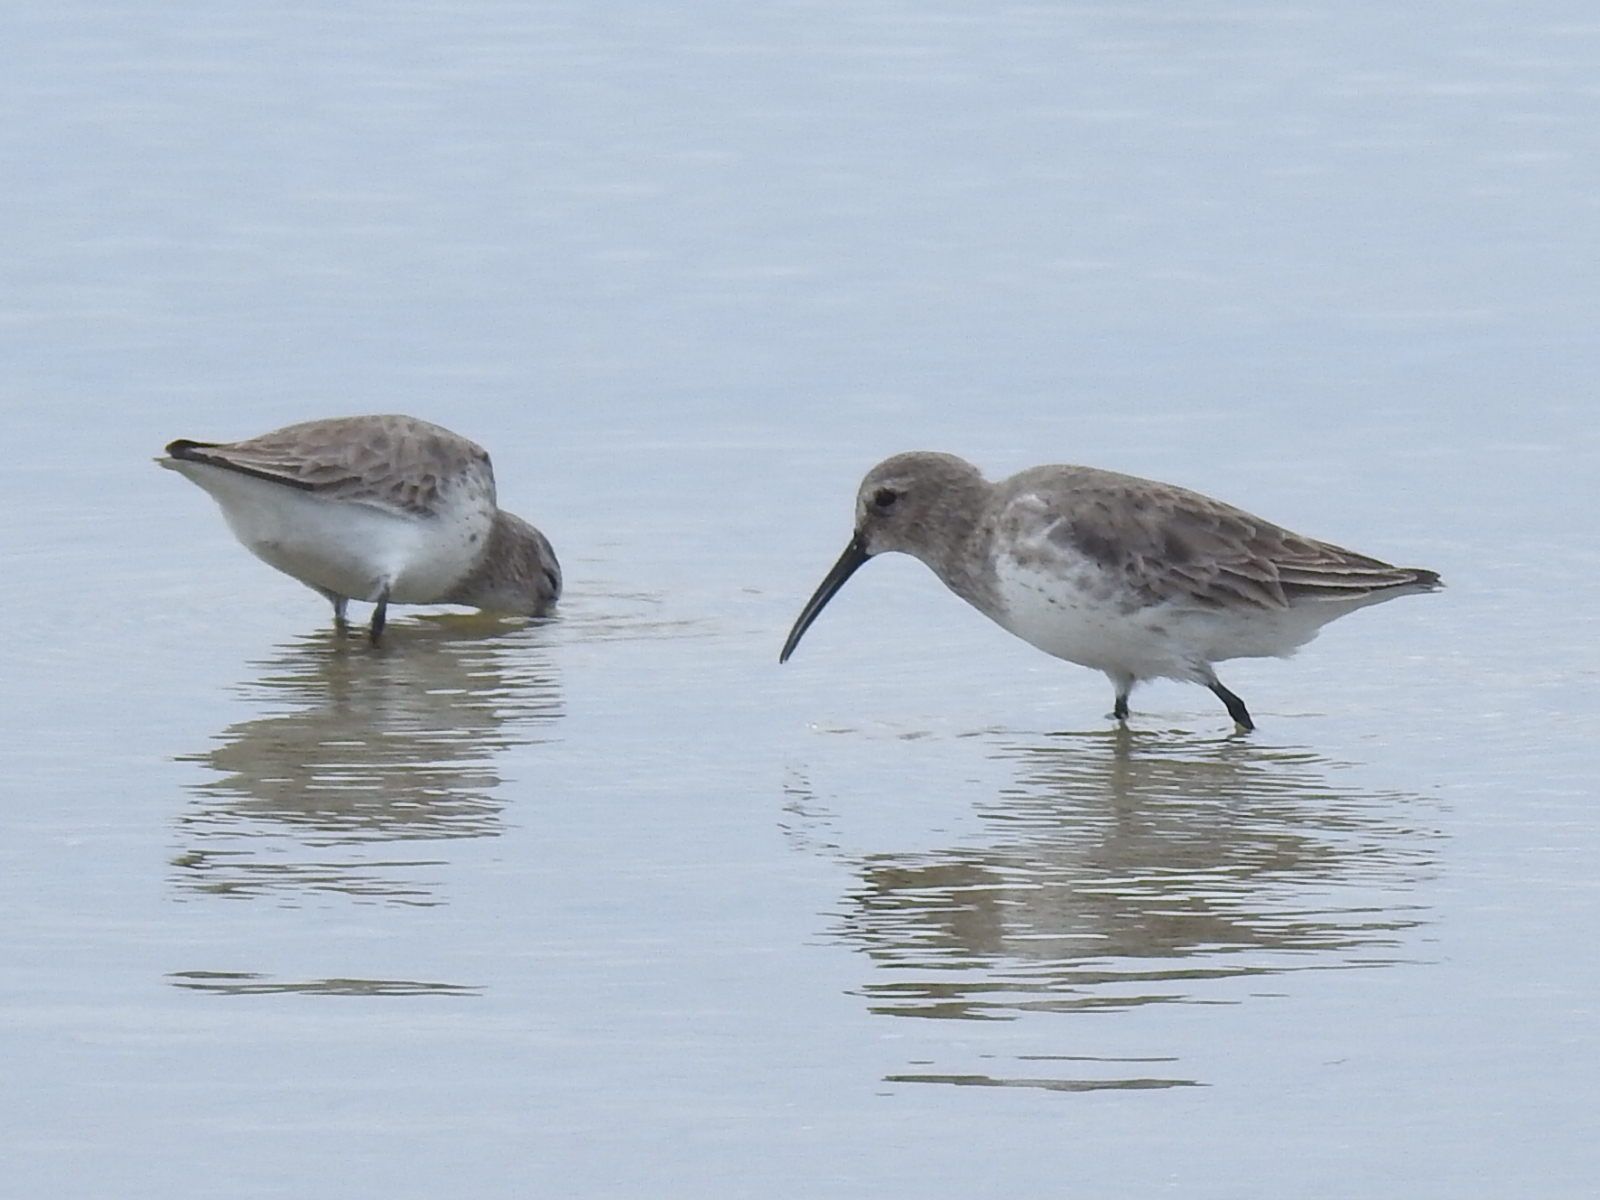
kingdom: Animalia
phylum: Chordata
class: Aves
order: Charadriiformes
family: Scolopacidae
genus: Calidris
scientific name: Calidris alpina
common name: Dunlin
